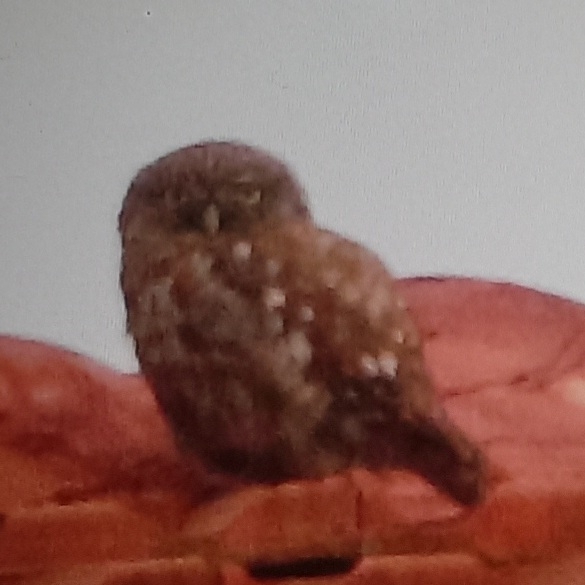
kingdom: Animalia
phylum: Chordata
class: Aves
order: Strigiformes
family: Strigidae
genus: Athene
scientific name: Athene noctua
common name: Little owl
